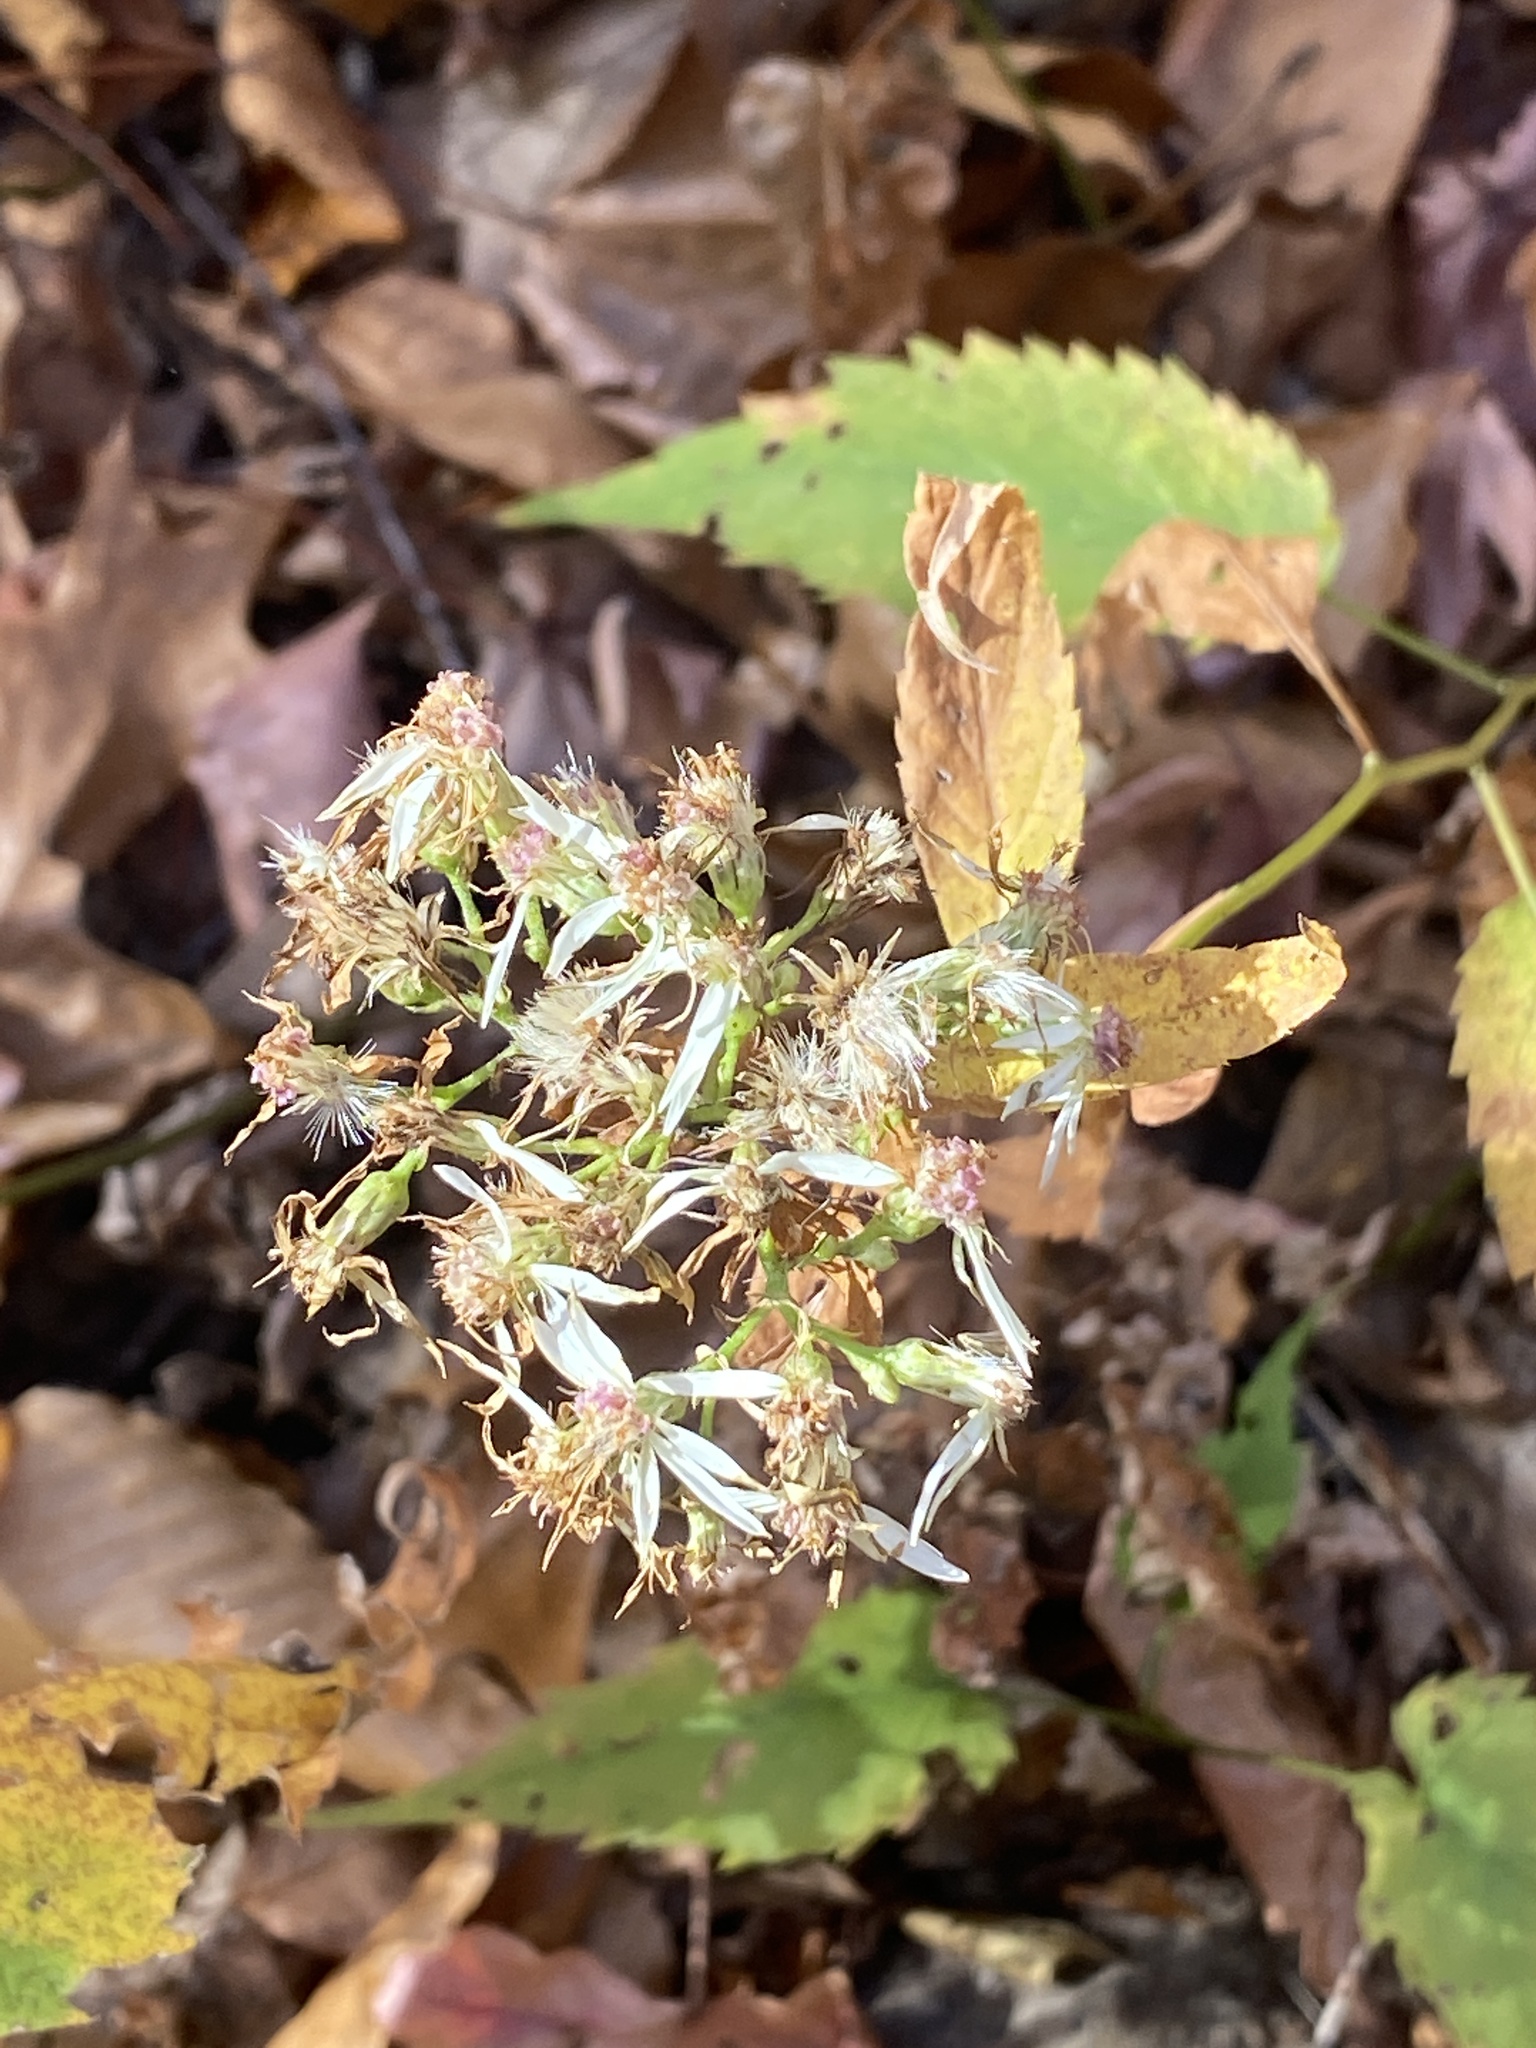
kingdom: Plantae
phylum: Tracheophyta
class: Magnoliopsida
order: Asterales
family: Asteraceae
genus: Eurybia
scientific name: Eurybia divaricata
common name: White wood aster
